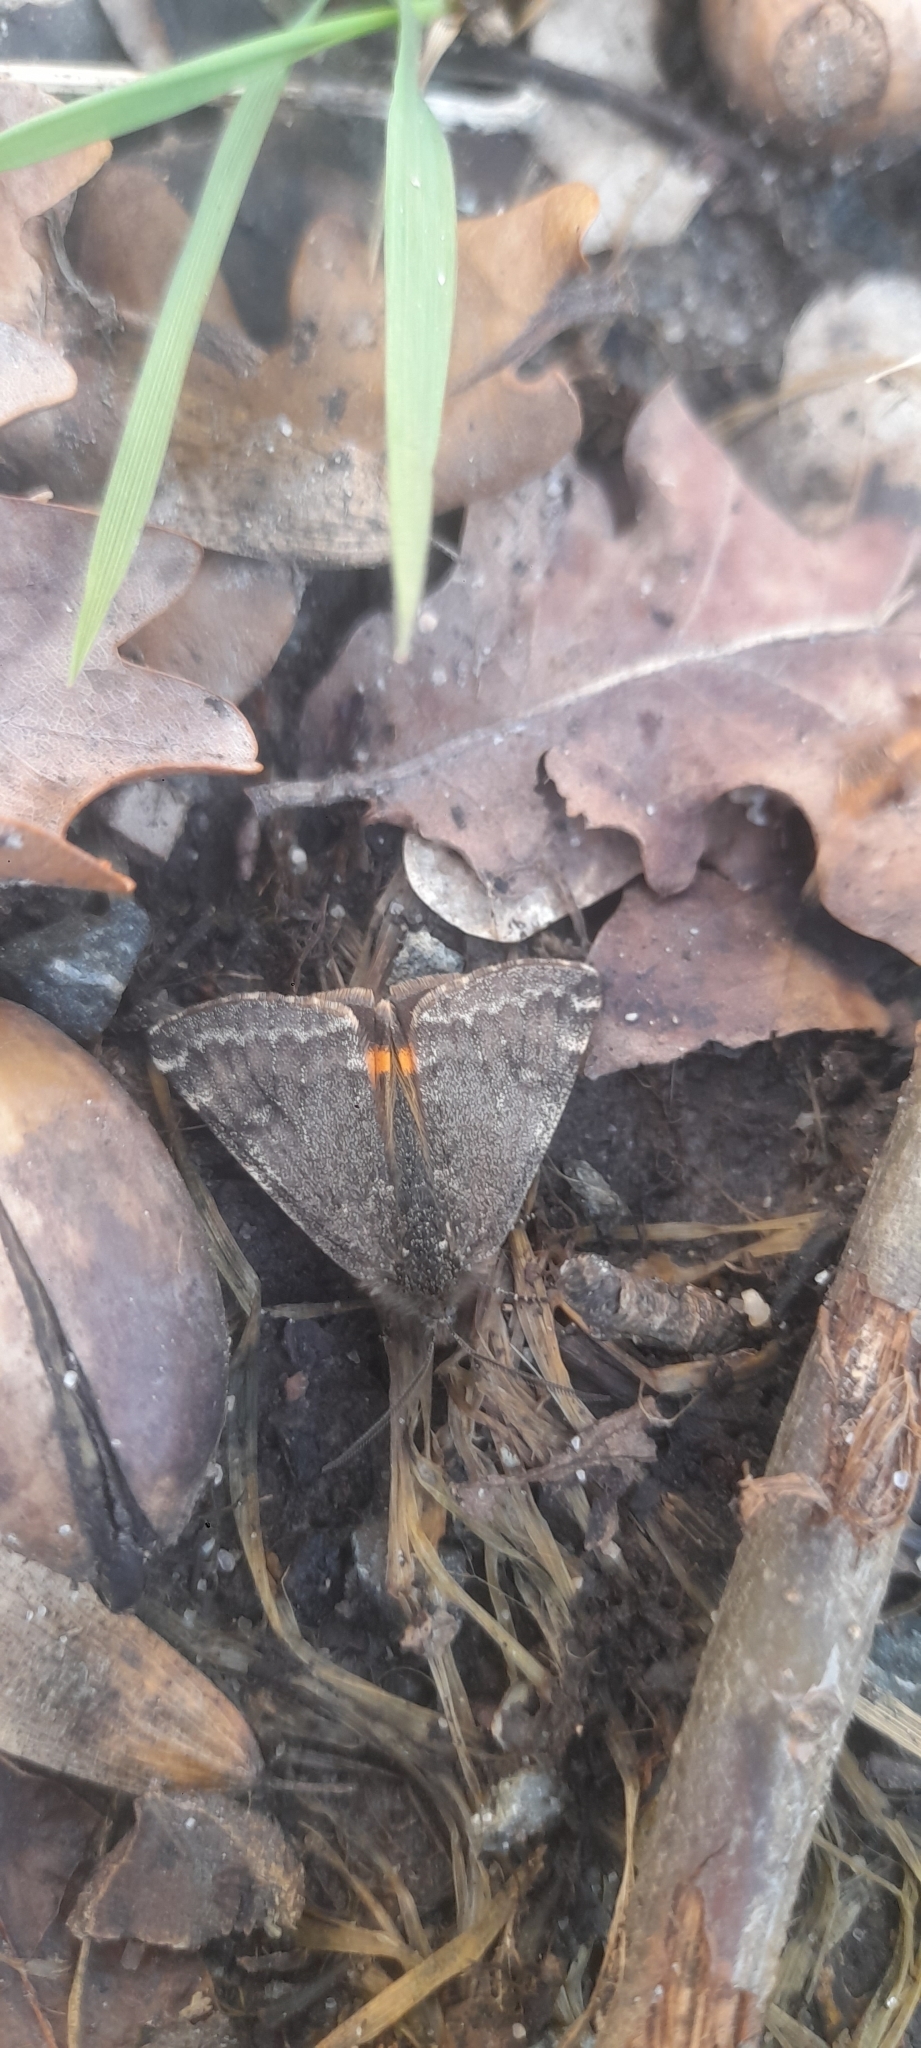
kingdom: Animalia
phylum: Arthropoda
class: Insecta
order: Lepidoptera
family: Geometridae
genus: Archiearis
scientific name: Archiearis notha
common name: Light orange underwing
